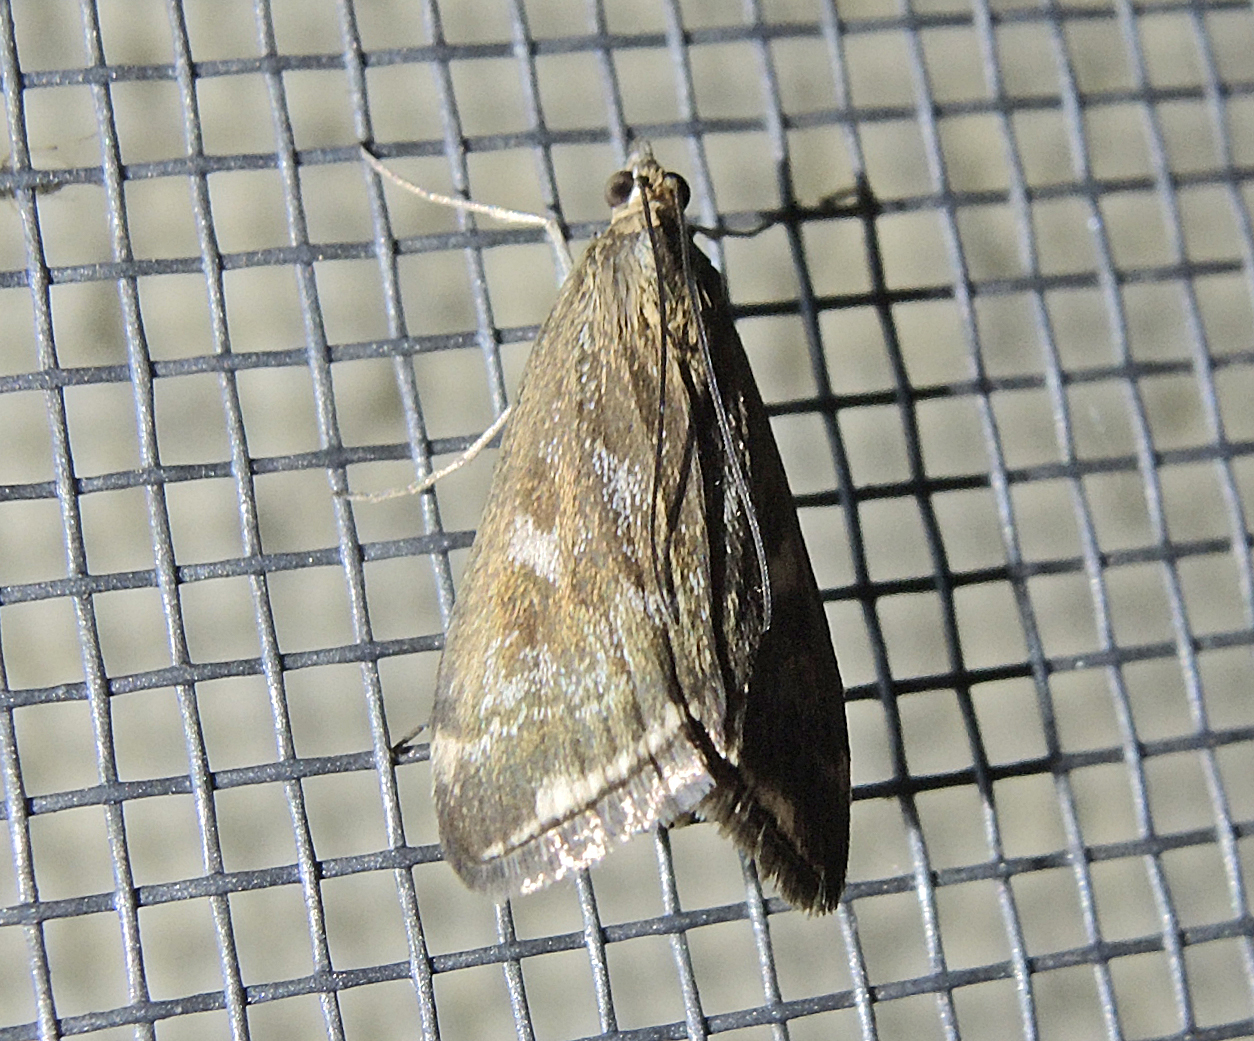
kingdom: Animalia
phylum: Arthropoda
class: Insecta
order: Lepidoptera
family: Crambidae
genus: Loxostege
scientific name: Loxostege sticticalis
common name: Crambid moth
